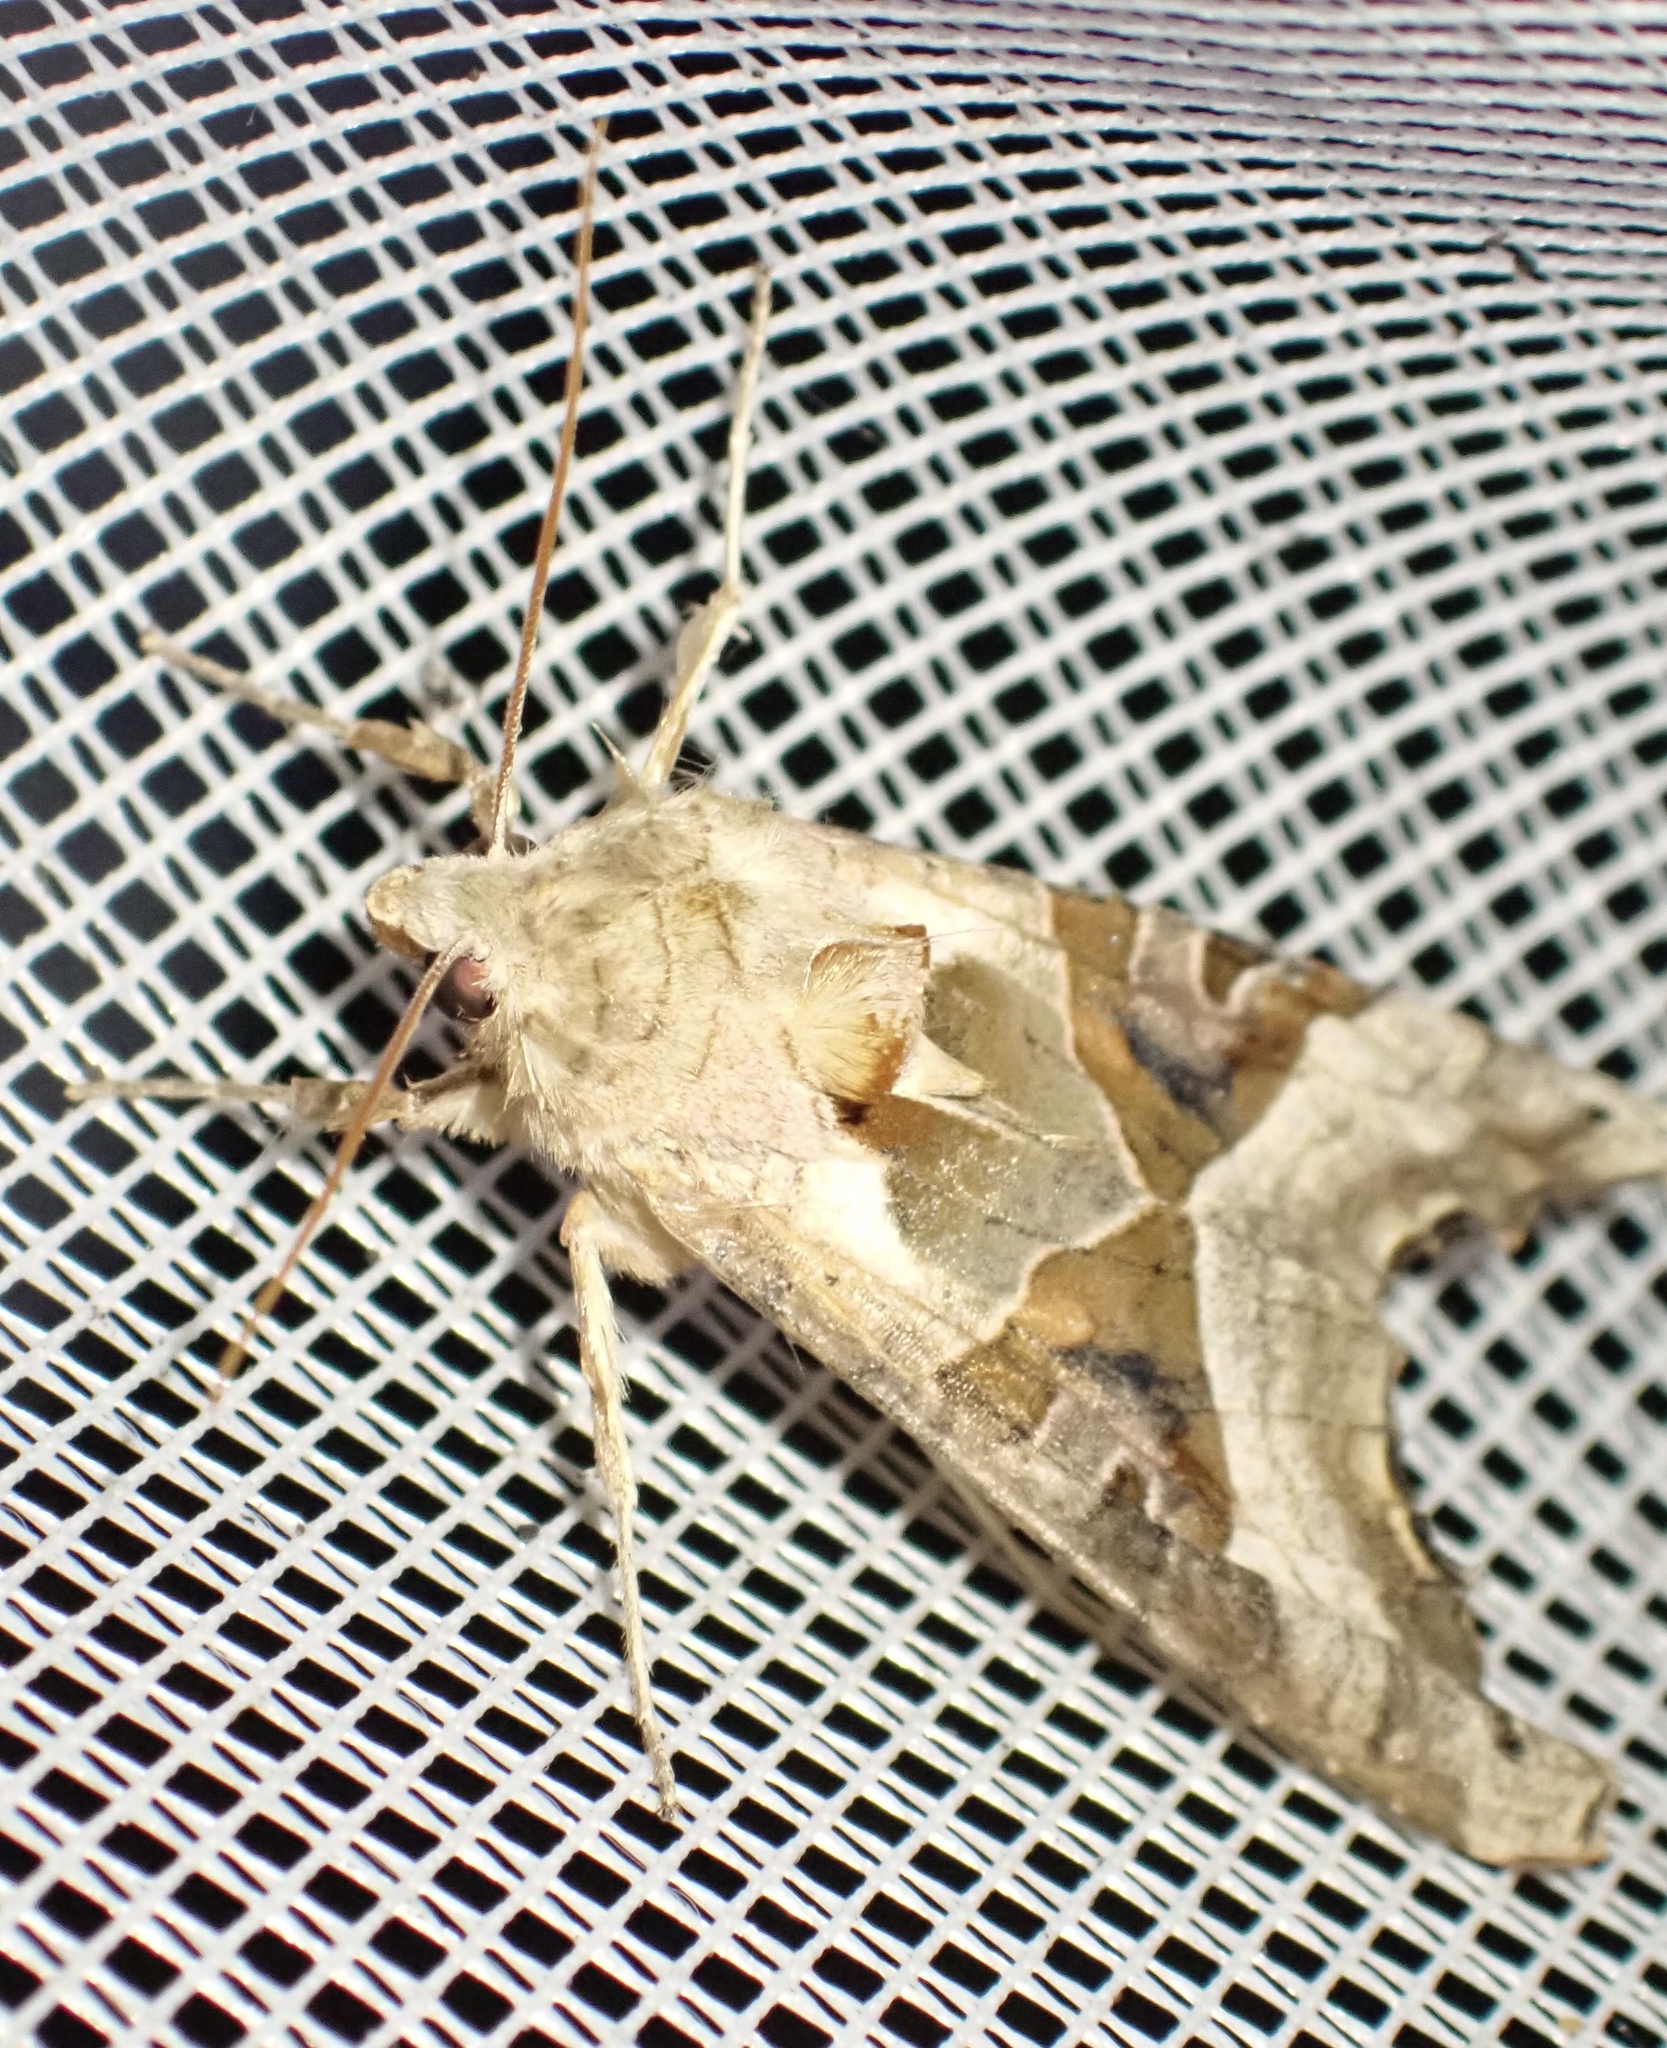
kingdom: Animalia
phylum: Arthropoda
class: Insecta
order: Lepidoptera
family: Noctuidae
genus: Phlogophora
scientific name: Phlogophora meticulosa
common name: Angle shades
